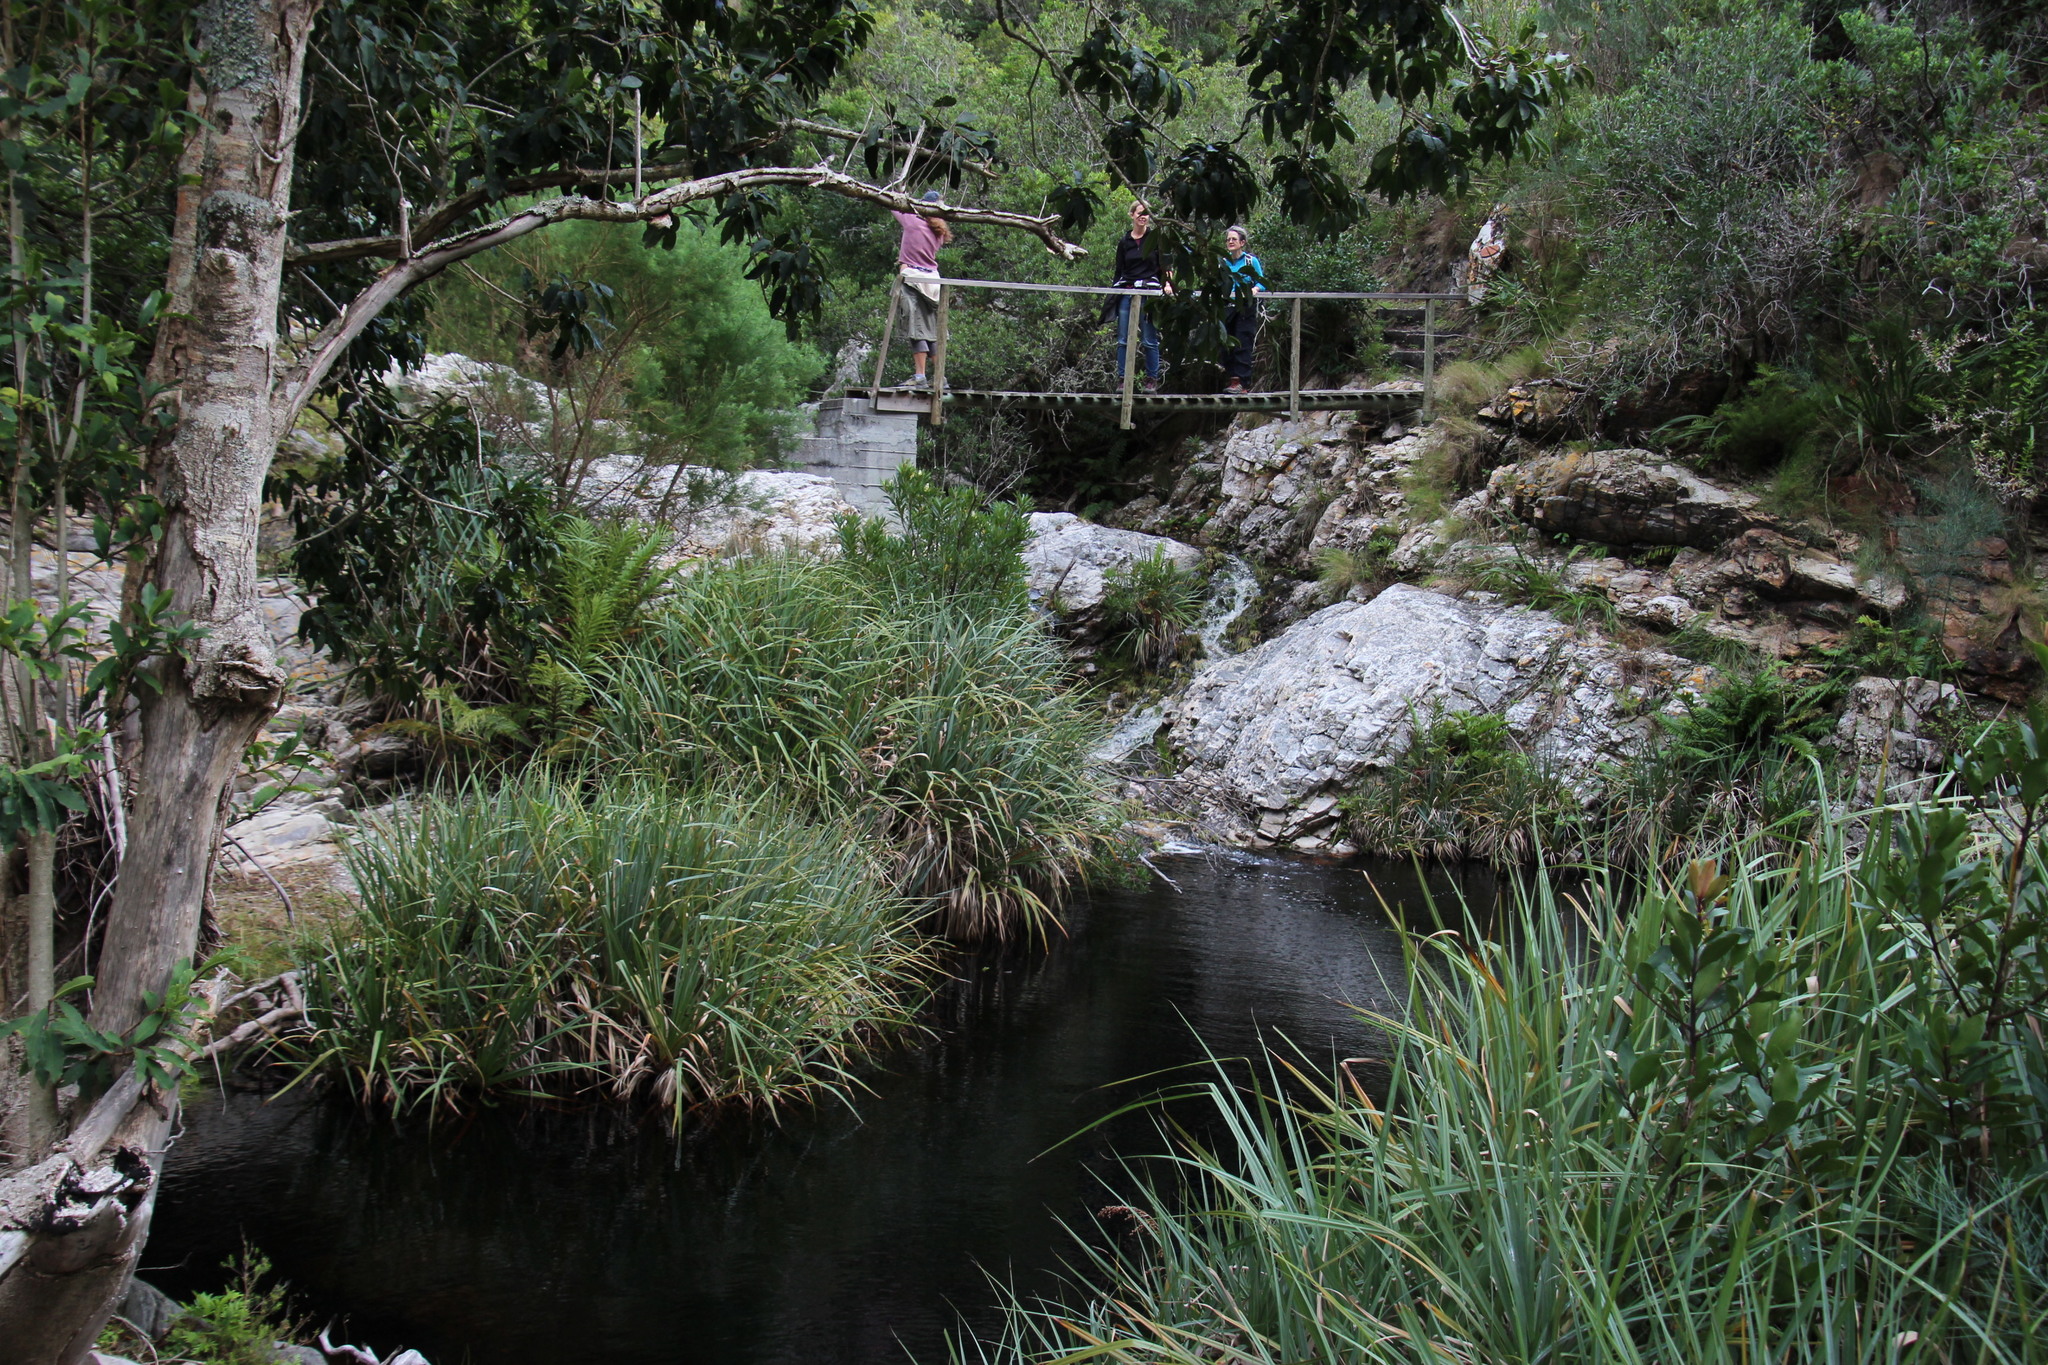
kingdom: Plantae
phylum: Tracheophyta
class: Liliopsida
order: Poales
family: Thurniaceae
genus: Prionium
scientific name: Prionium serratum
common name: Palmiet
